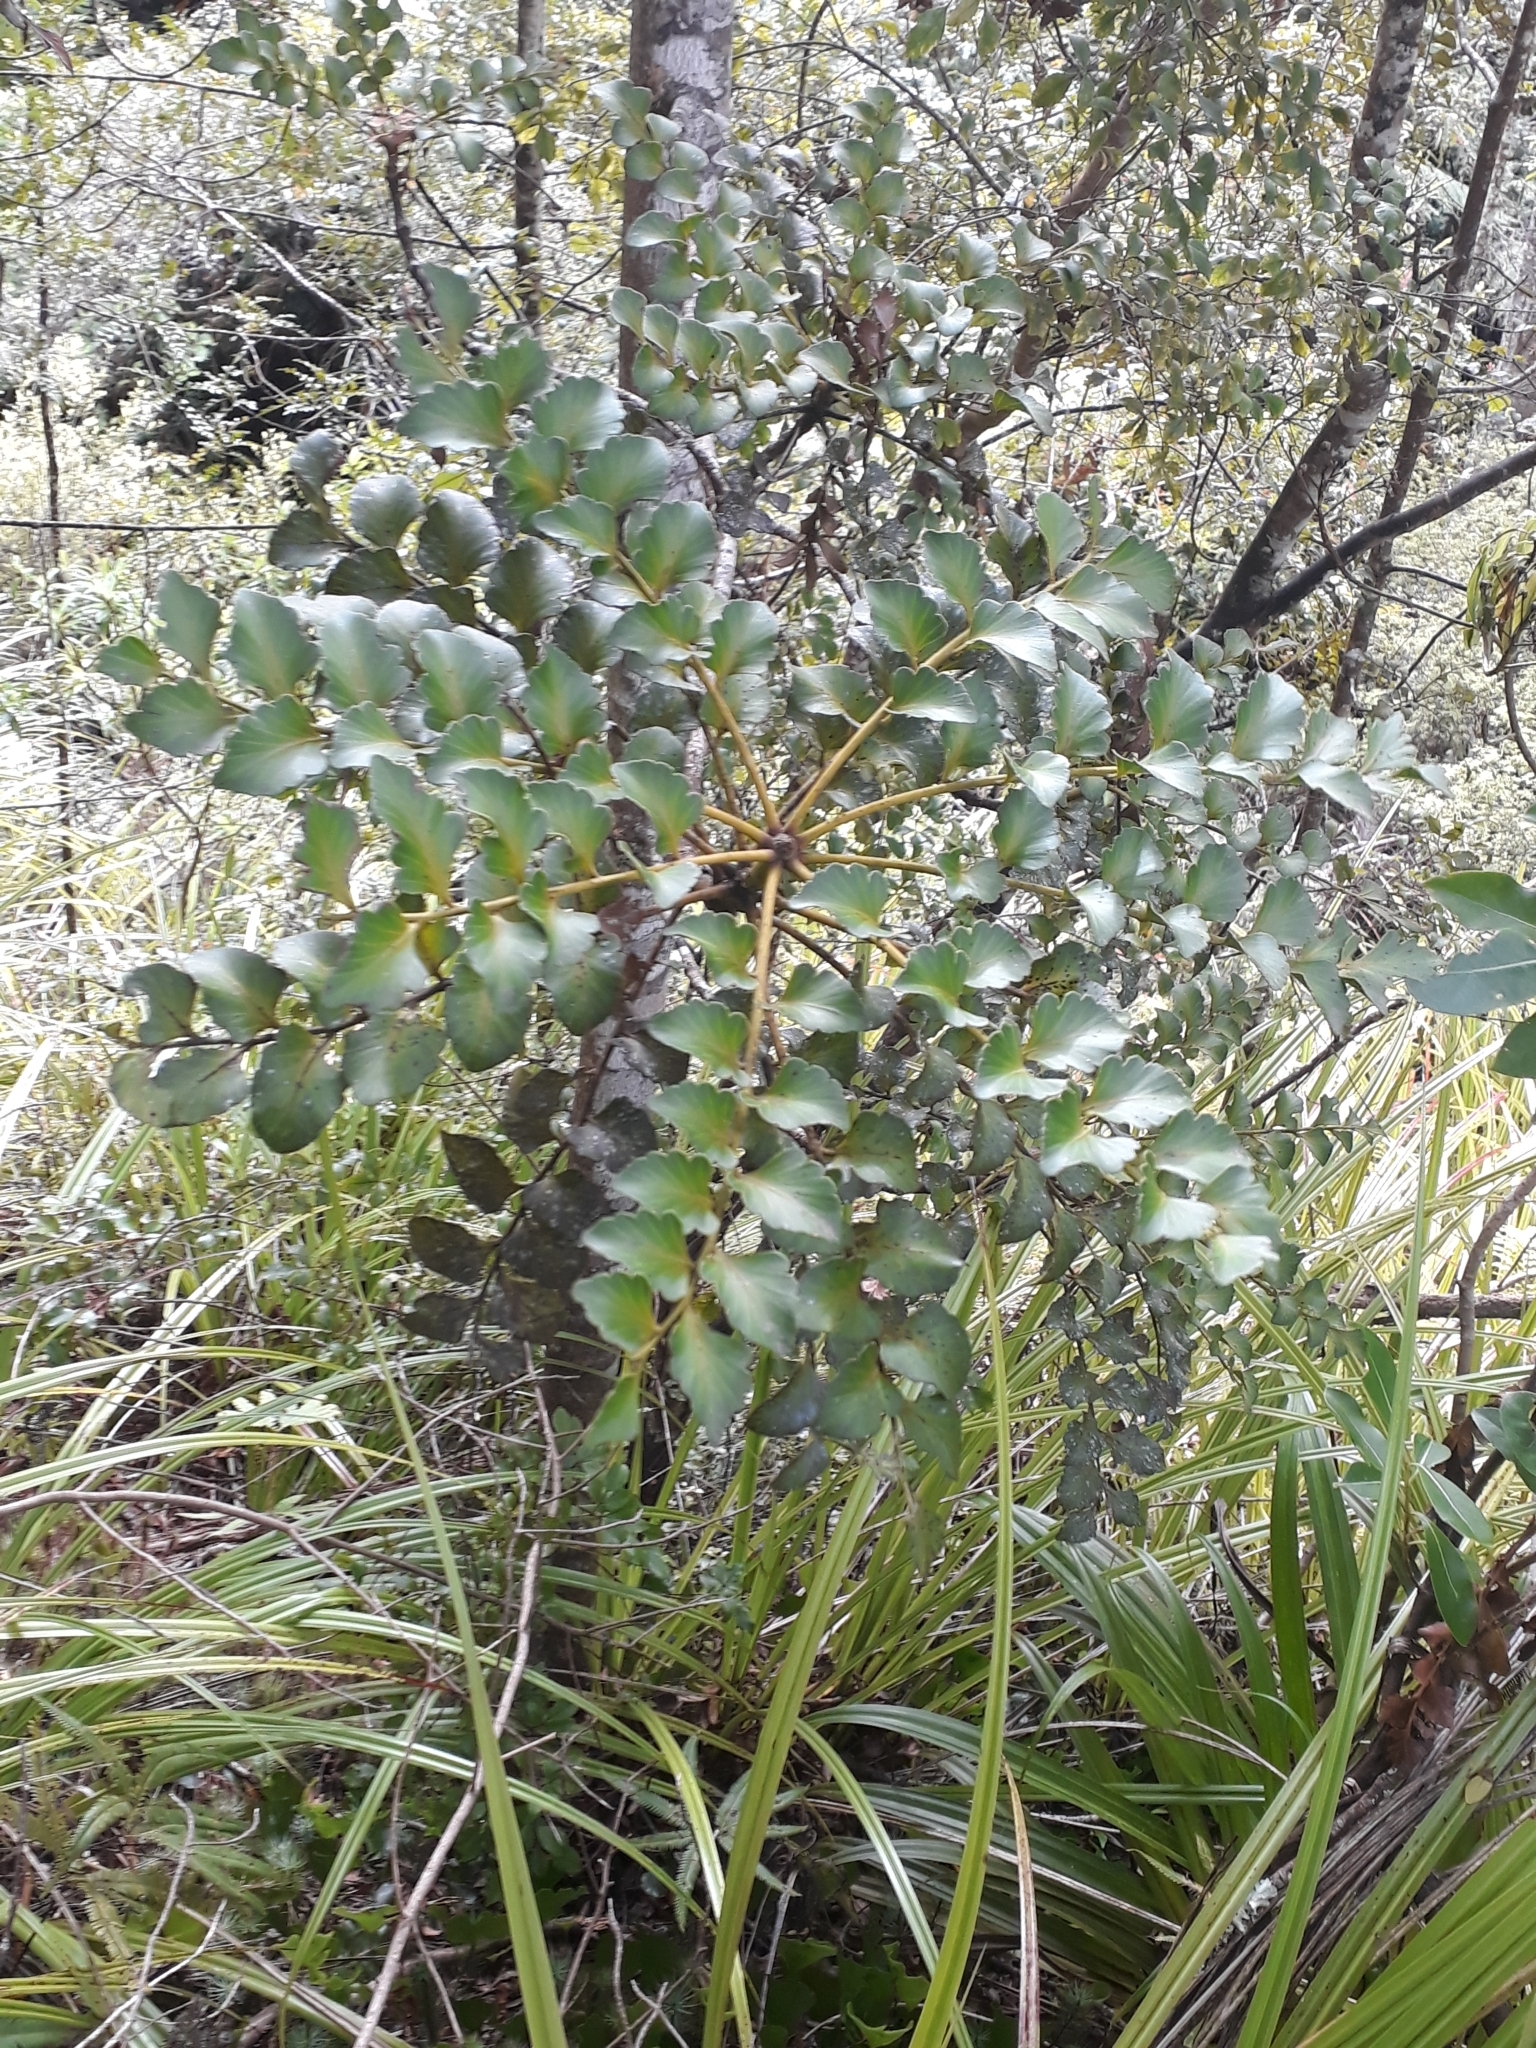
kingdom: Plantae
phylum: Tracheophyta
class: Pinopsida
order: Pinales
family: Phyllocladaceae
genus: Phyllocladus
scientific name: Phyllocladus toatoa
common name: Celery-top pine
